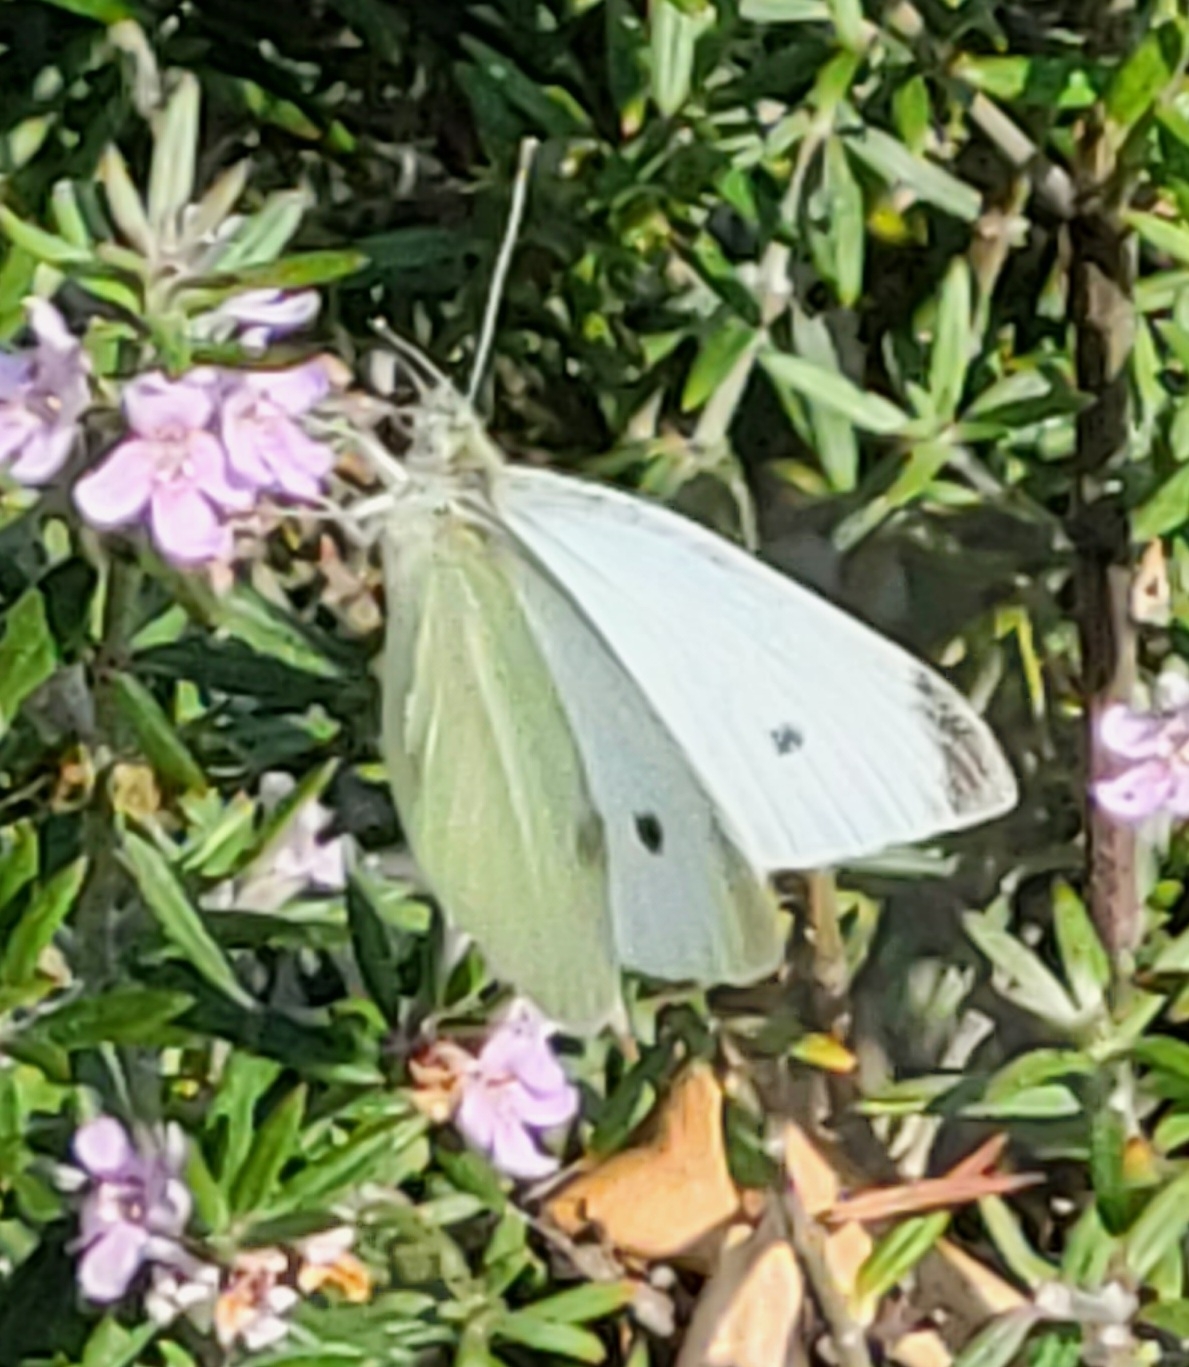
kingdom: Animalia
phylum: Arthropoda
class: Insecta
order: Lepidoptera
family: Pieridae
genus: Pieris
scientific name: Pieris rapae
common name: Small white
